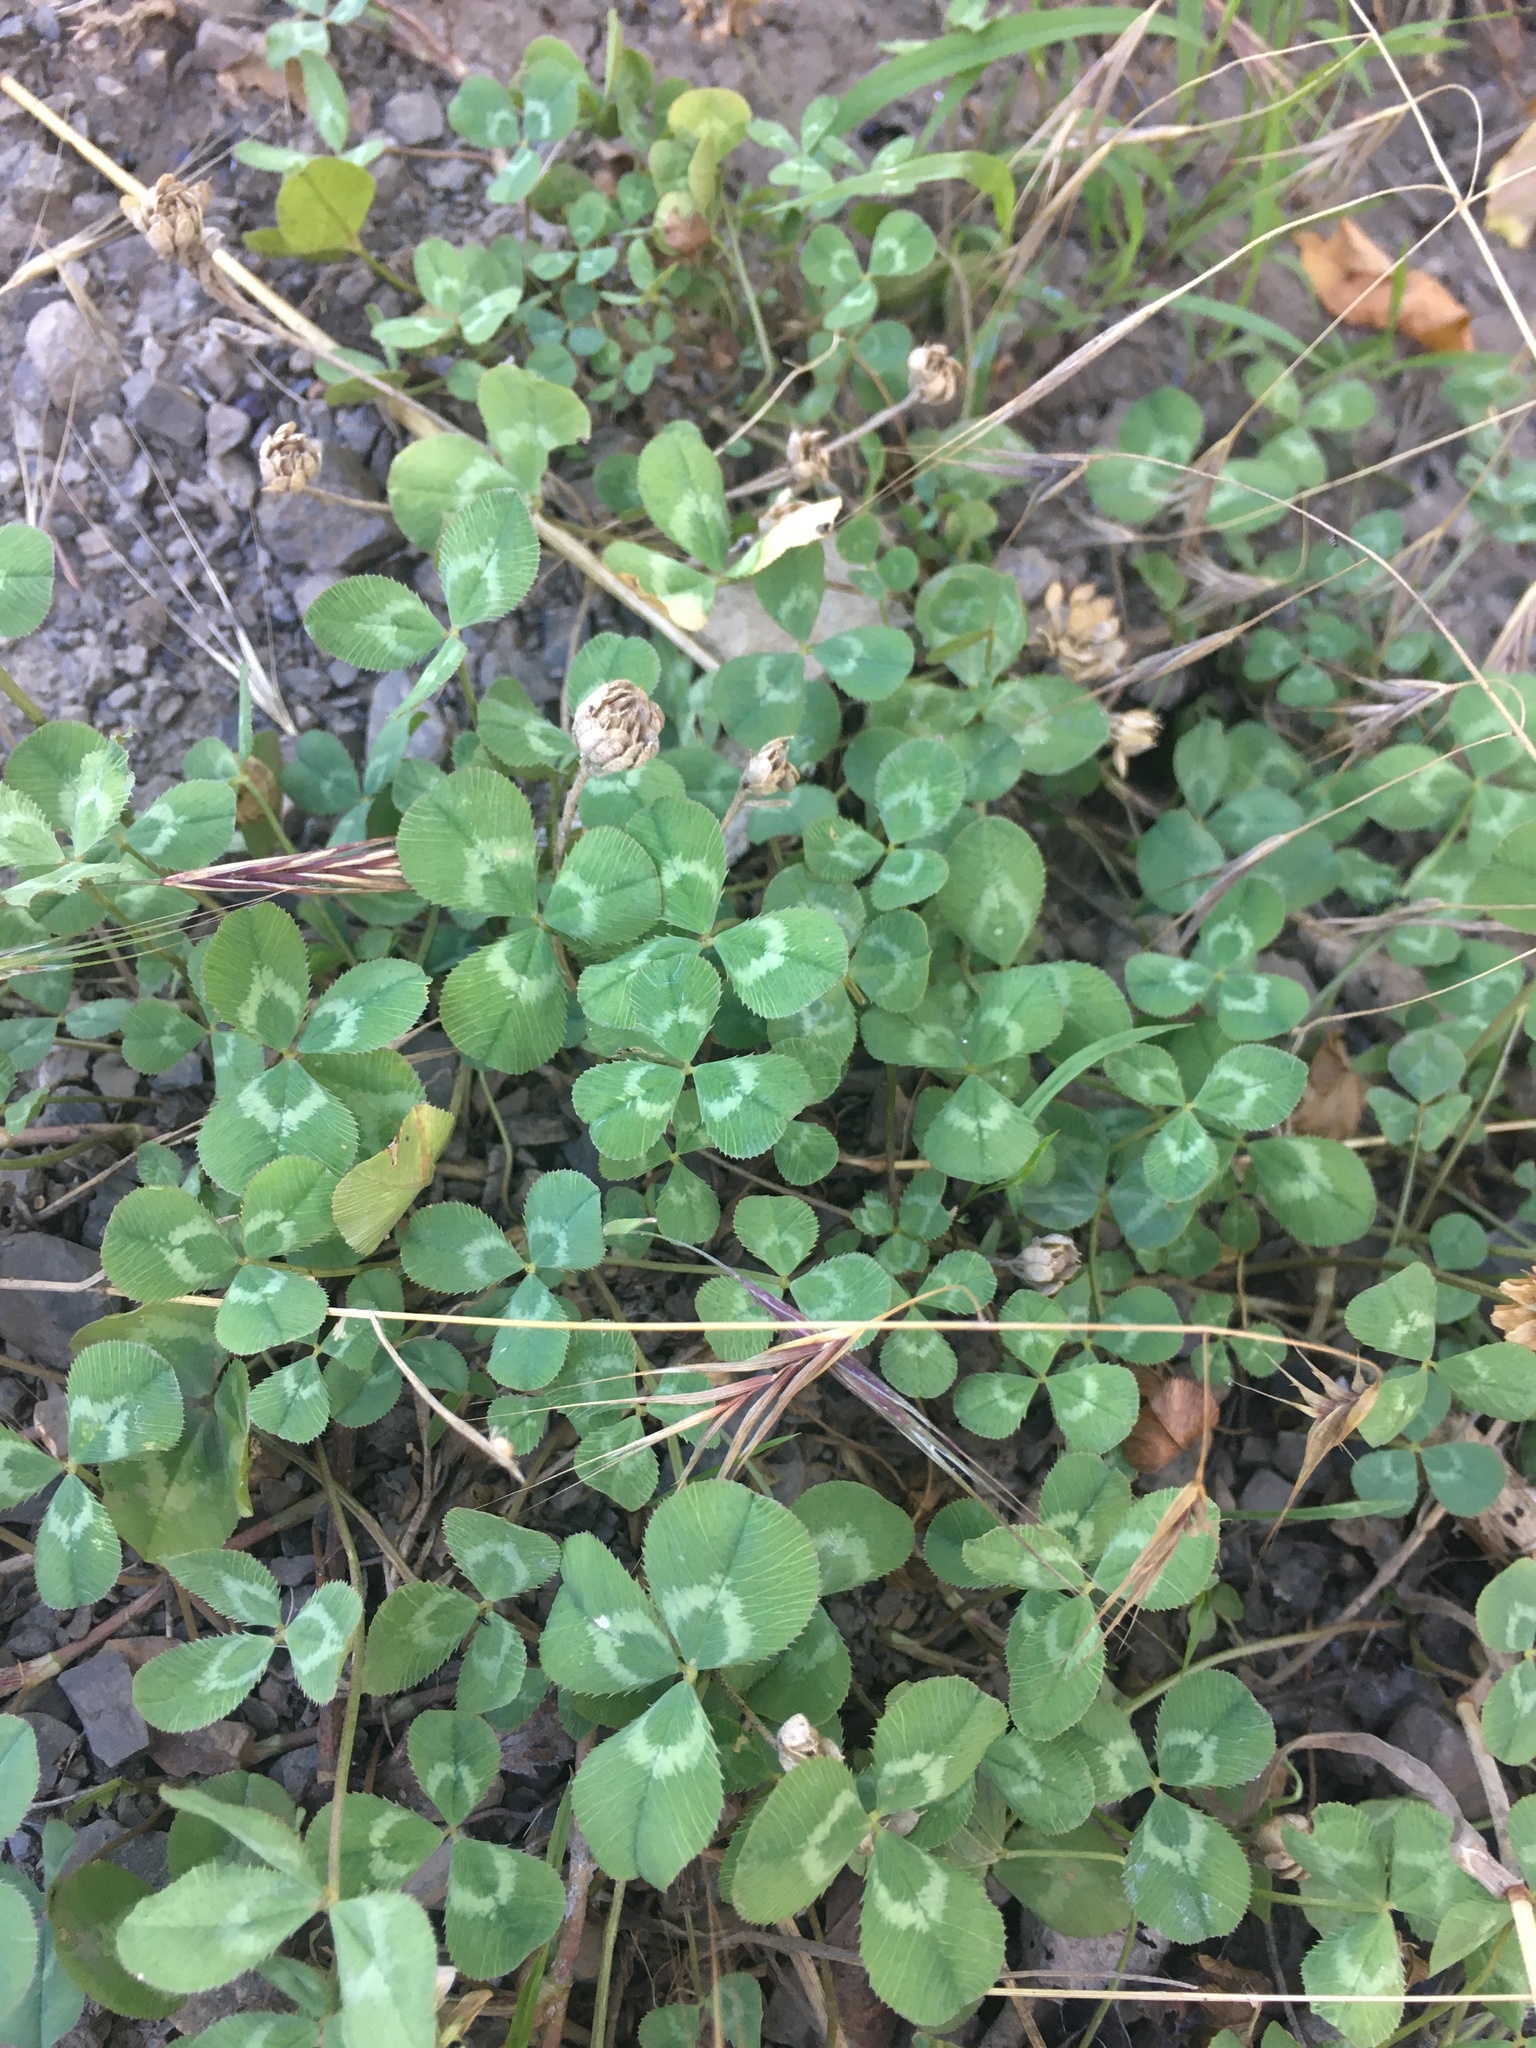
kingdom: Plantae
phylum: Tracheophyta
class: Magnoliopsida
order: Fabales
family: Fabaceae
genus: Trifolium
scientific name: Trifolium repens
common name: White clover
